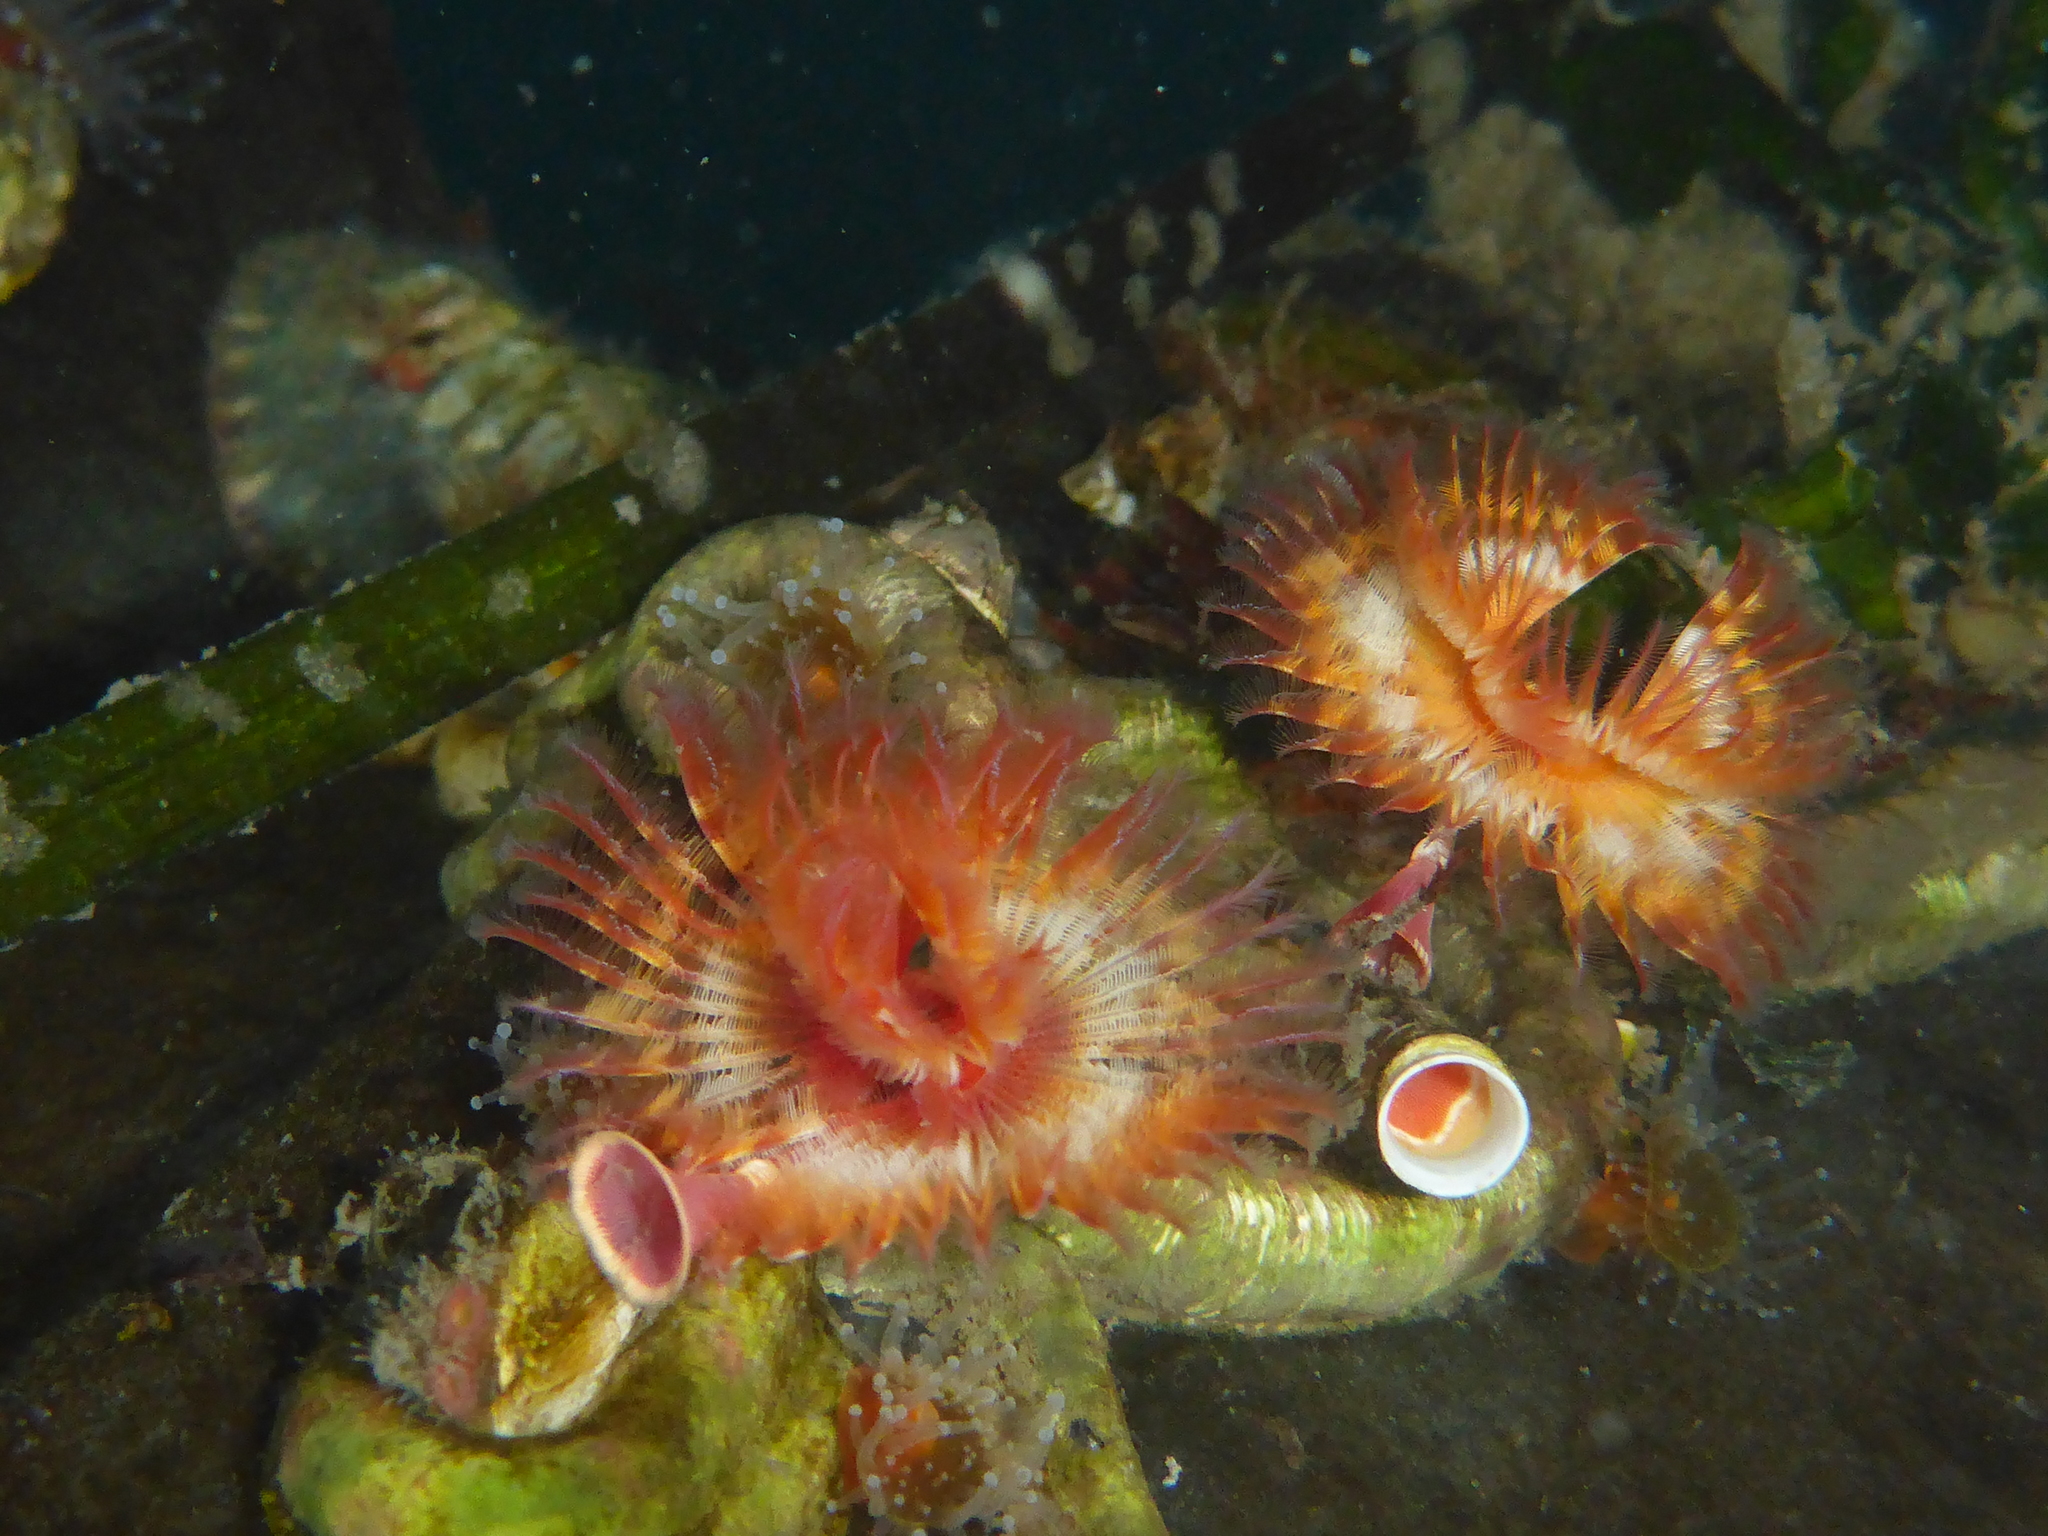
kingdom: Animalia
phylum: Annelida
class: Polychaeta
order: Sabellida
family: Serpulidae
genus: Serpula
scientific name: Serpula columbiana
